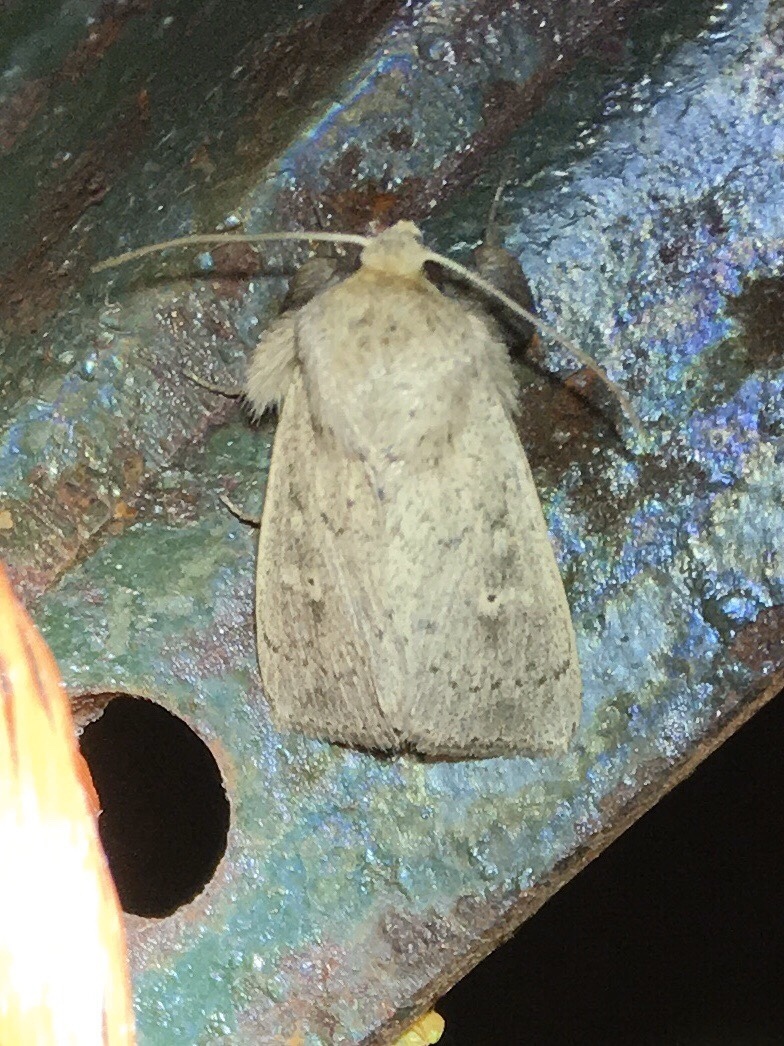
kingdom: Animalia
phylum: Arthropoda
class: Insecta
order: Lepidoptera
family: Noctuidae
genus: Leucania
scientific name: Leucania ursula
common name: Ursula wainscot
